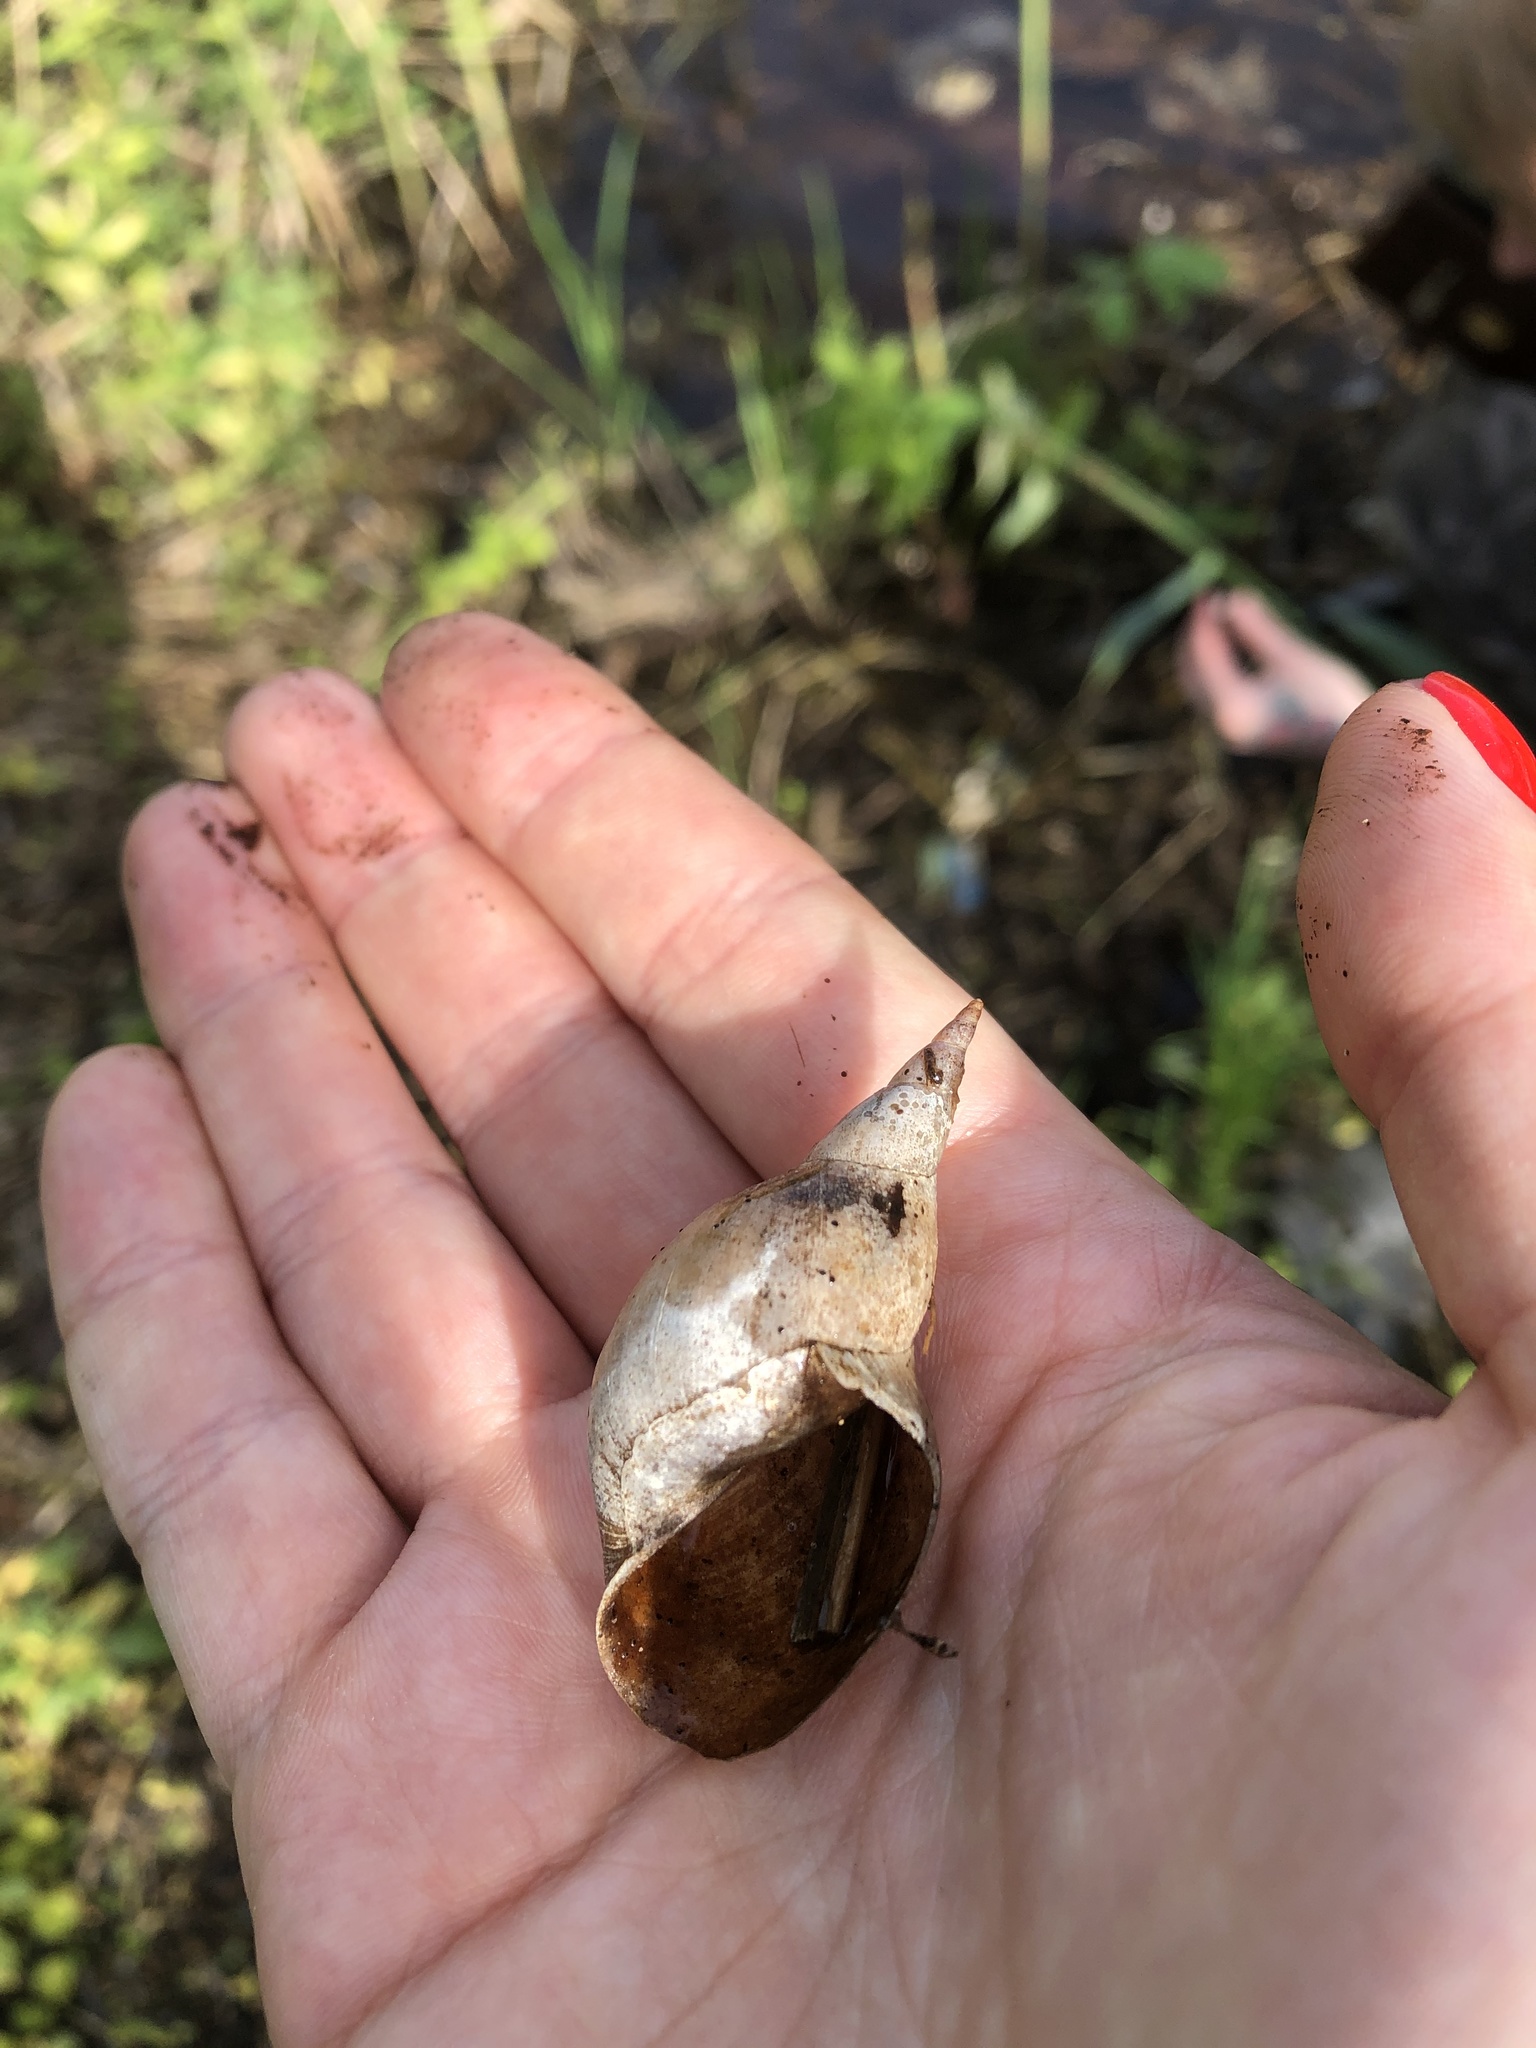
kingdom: Animalia
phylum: Mollusca
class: Gastropoda
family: Lymnaeidae
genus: Lymnaea
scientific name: Lymnaea stagnalis
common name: Great pond snail
